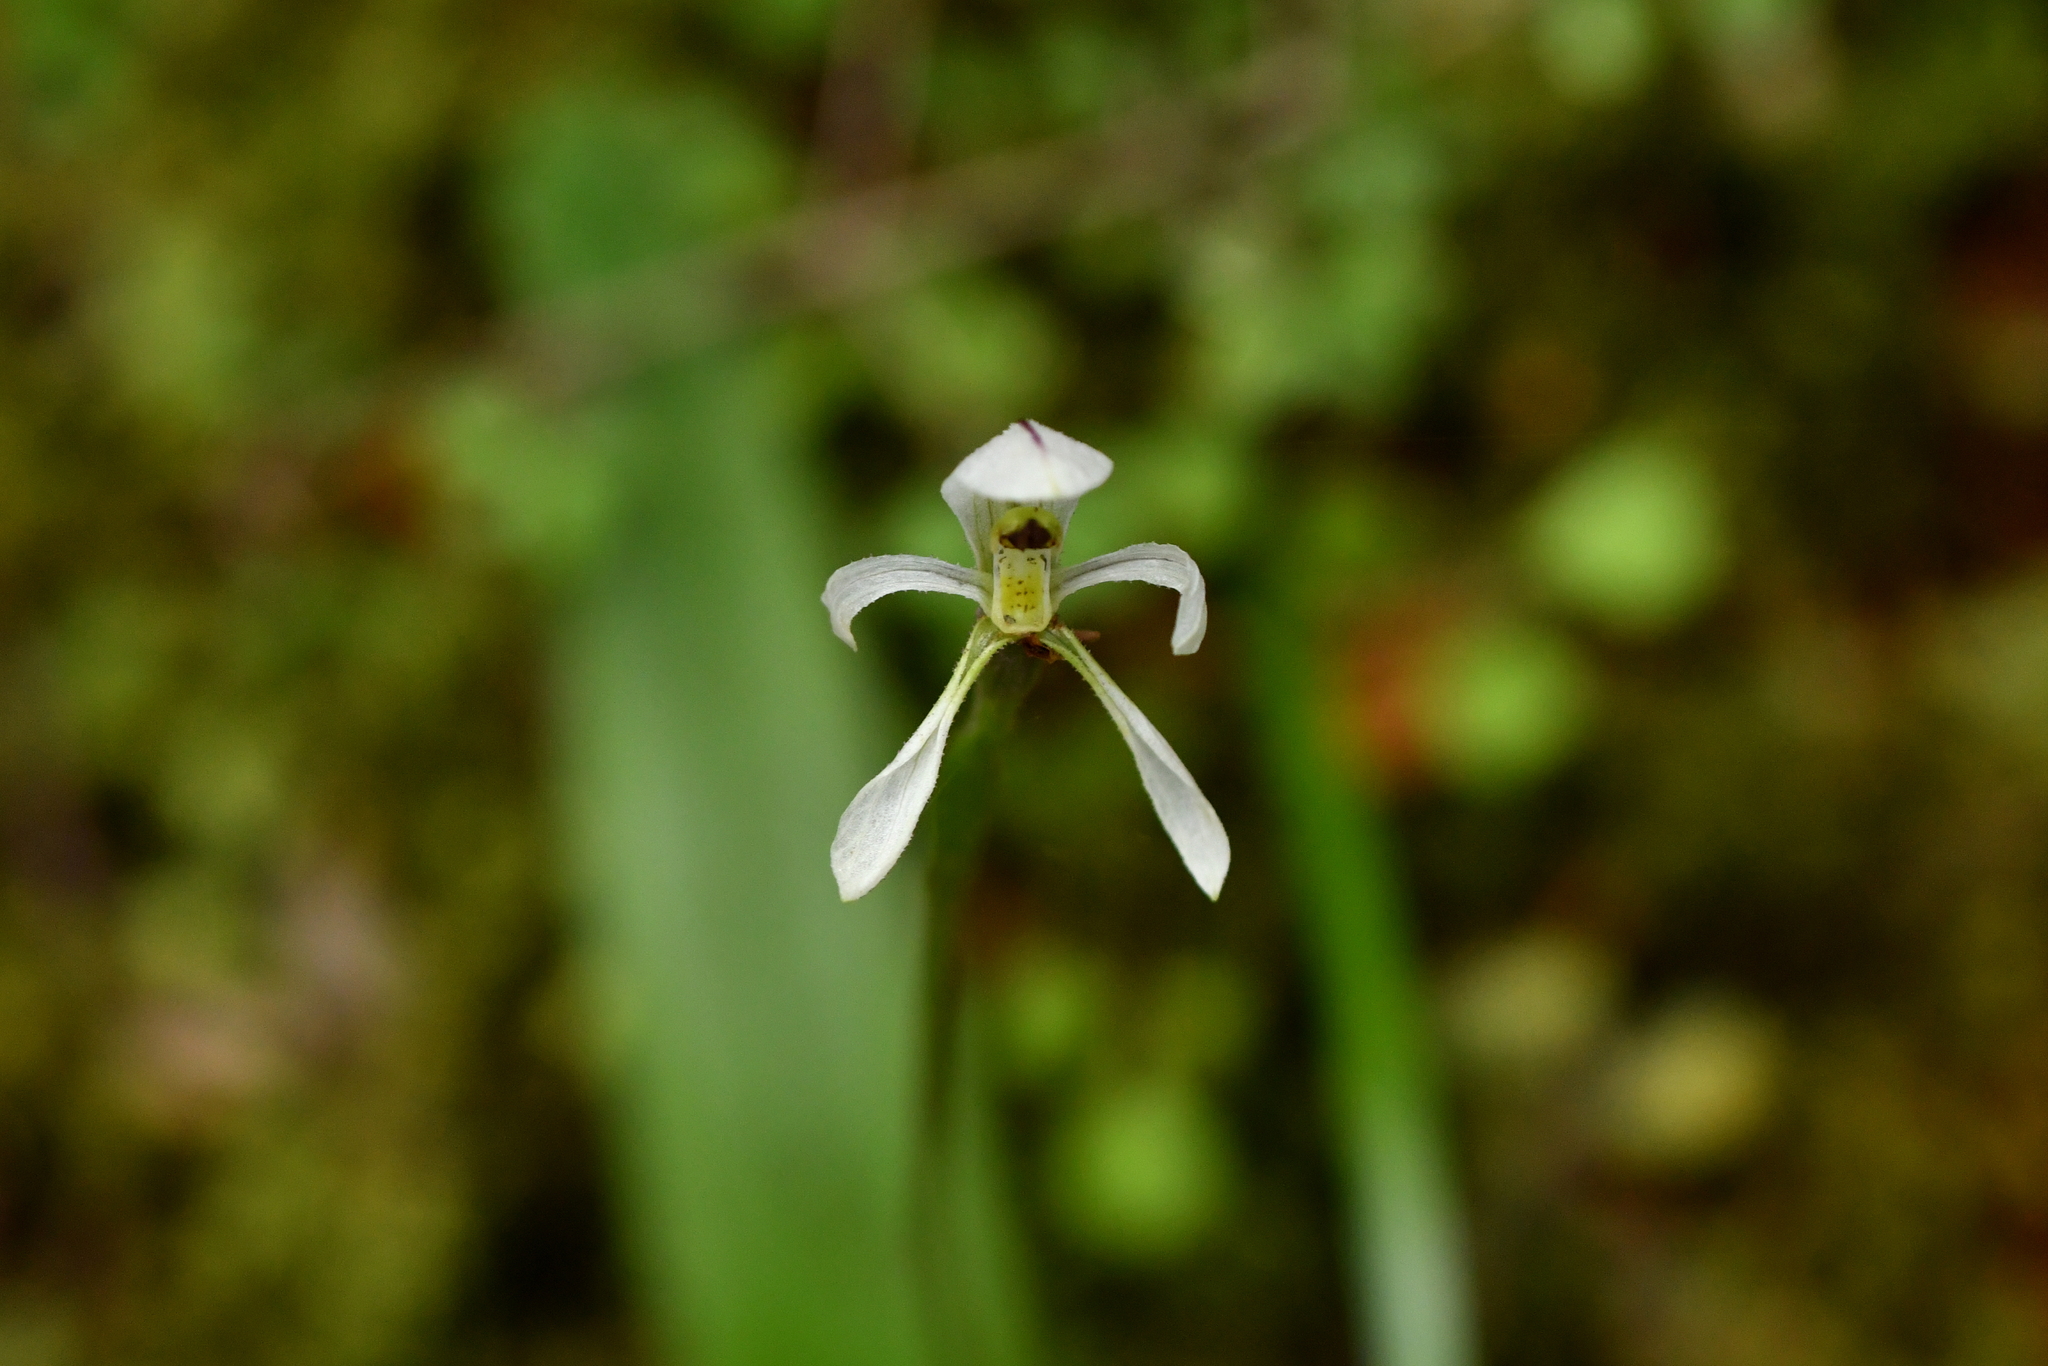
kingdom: Plantae
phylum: Tracheophyta
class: Liliopsida
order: Asparagales
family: Orchidaceae
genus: Aporostylis
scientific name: Aporostylis bifolia
